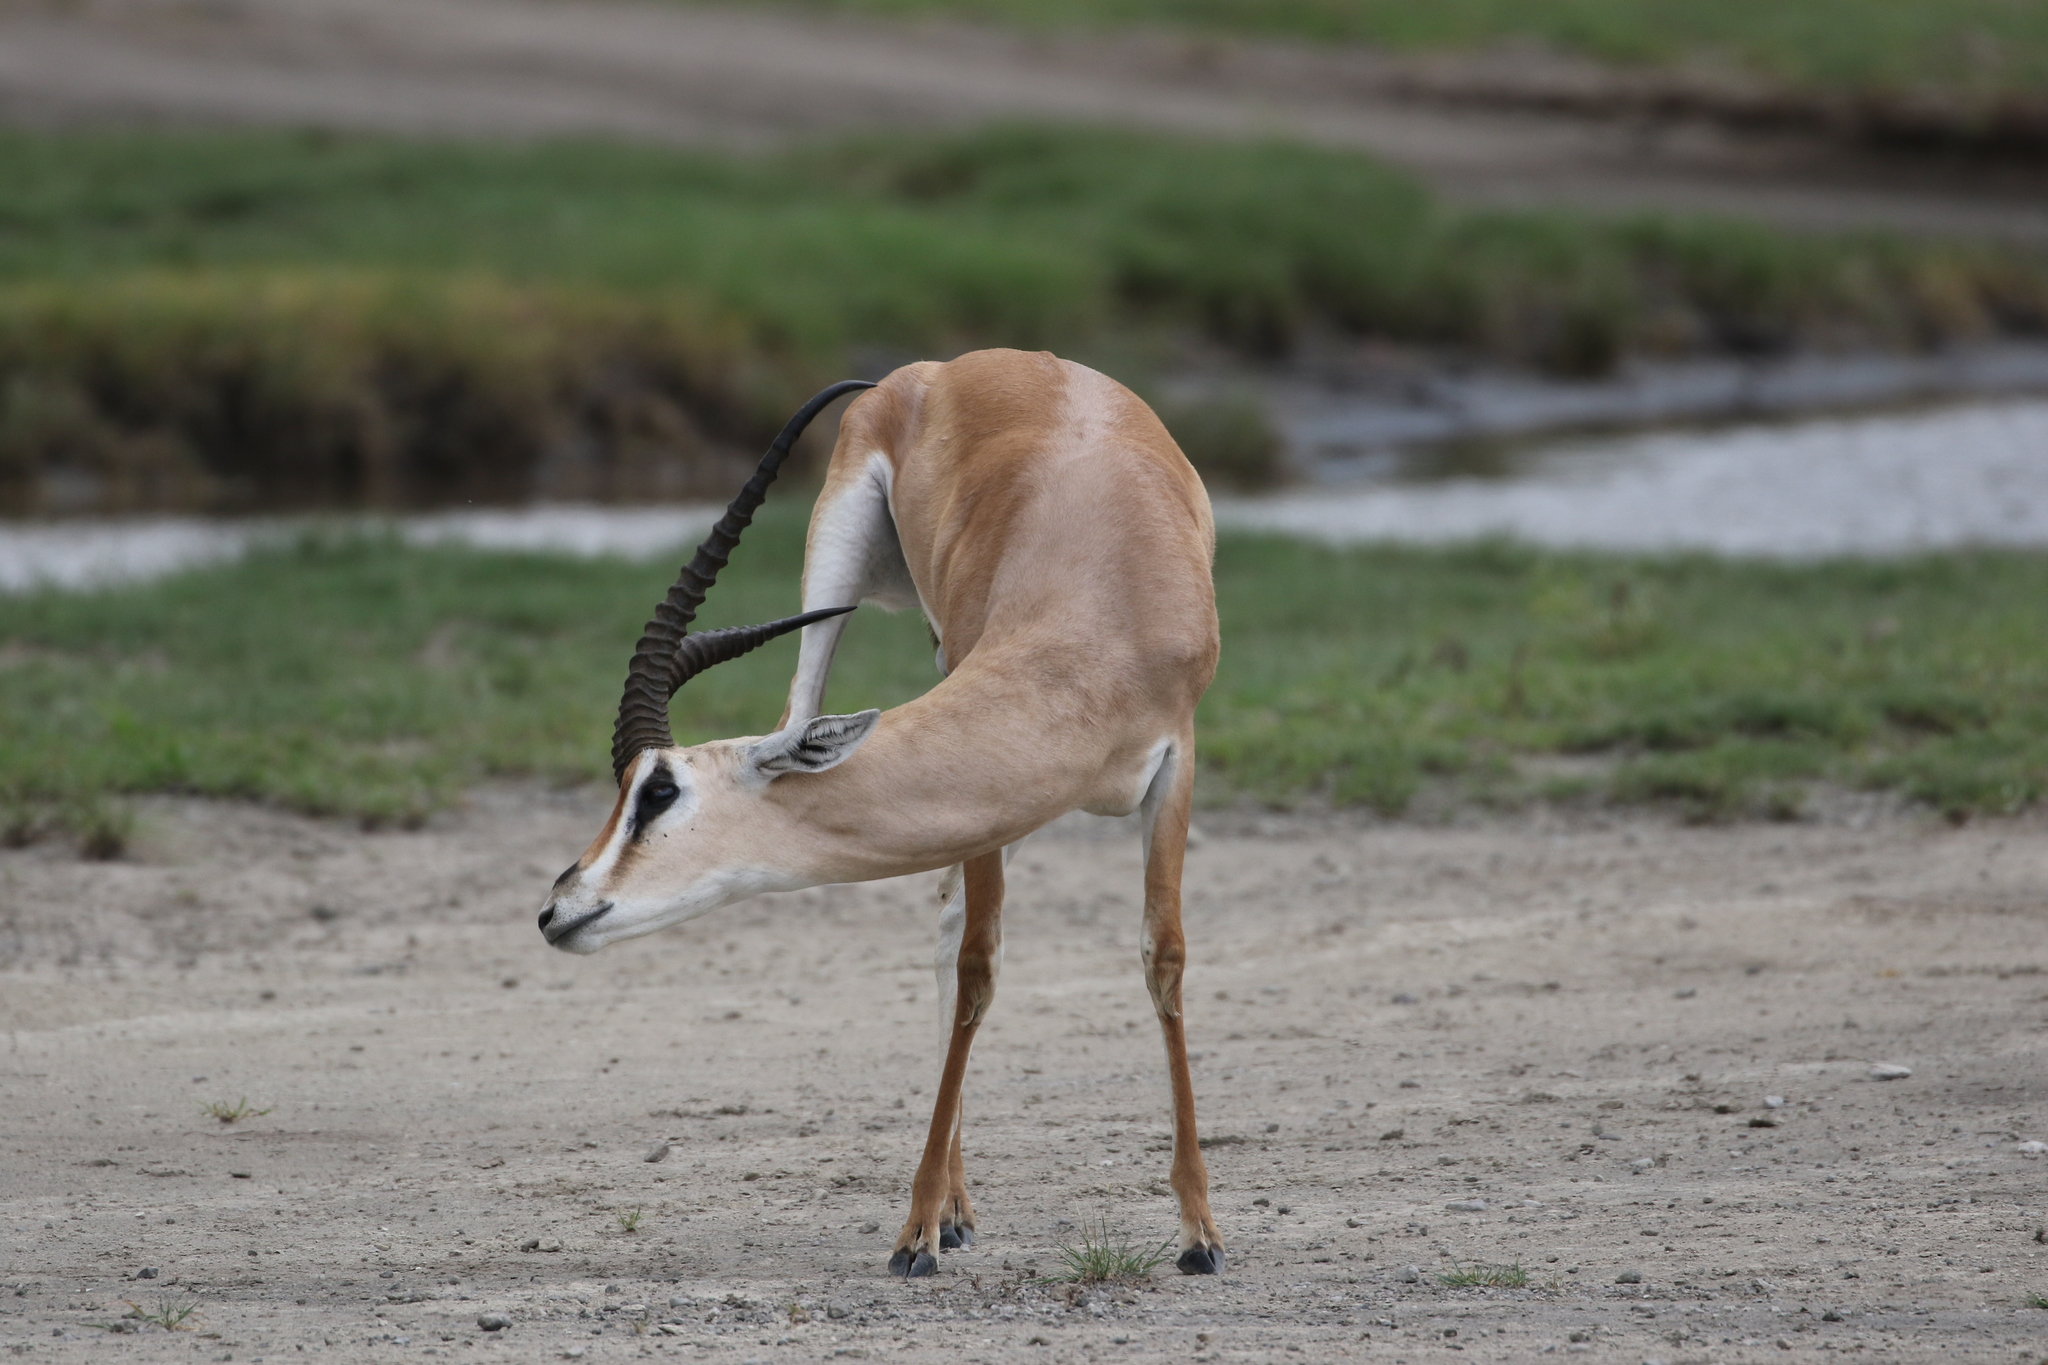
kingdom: Animalia
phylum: Chordata
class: Mammalia
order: Artiodactyla
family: Bovidae
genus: Nanger
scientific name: Nanger granti
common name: Grant's gazelle
